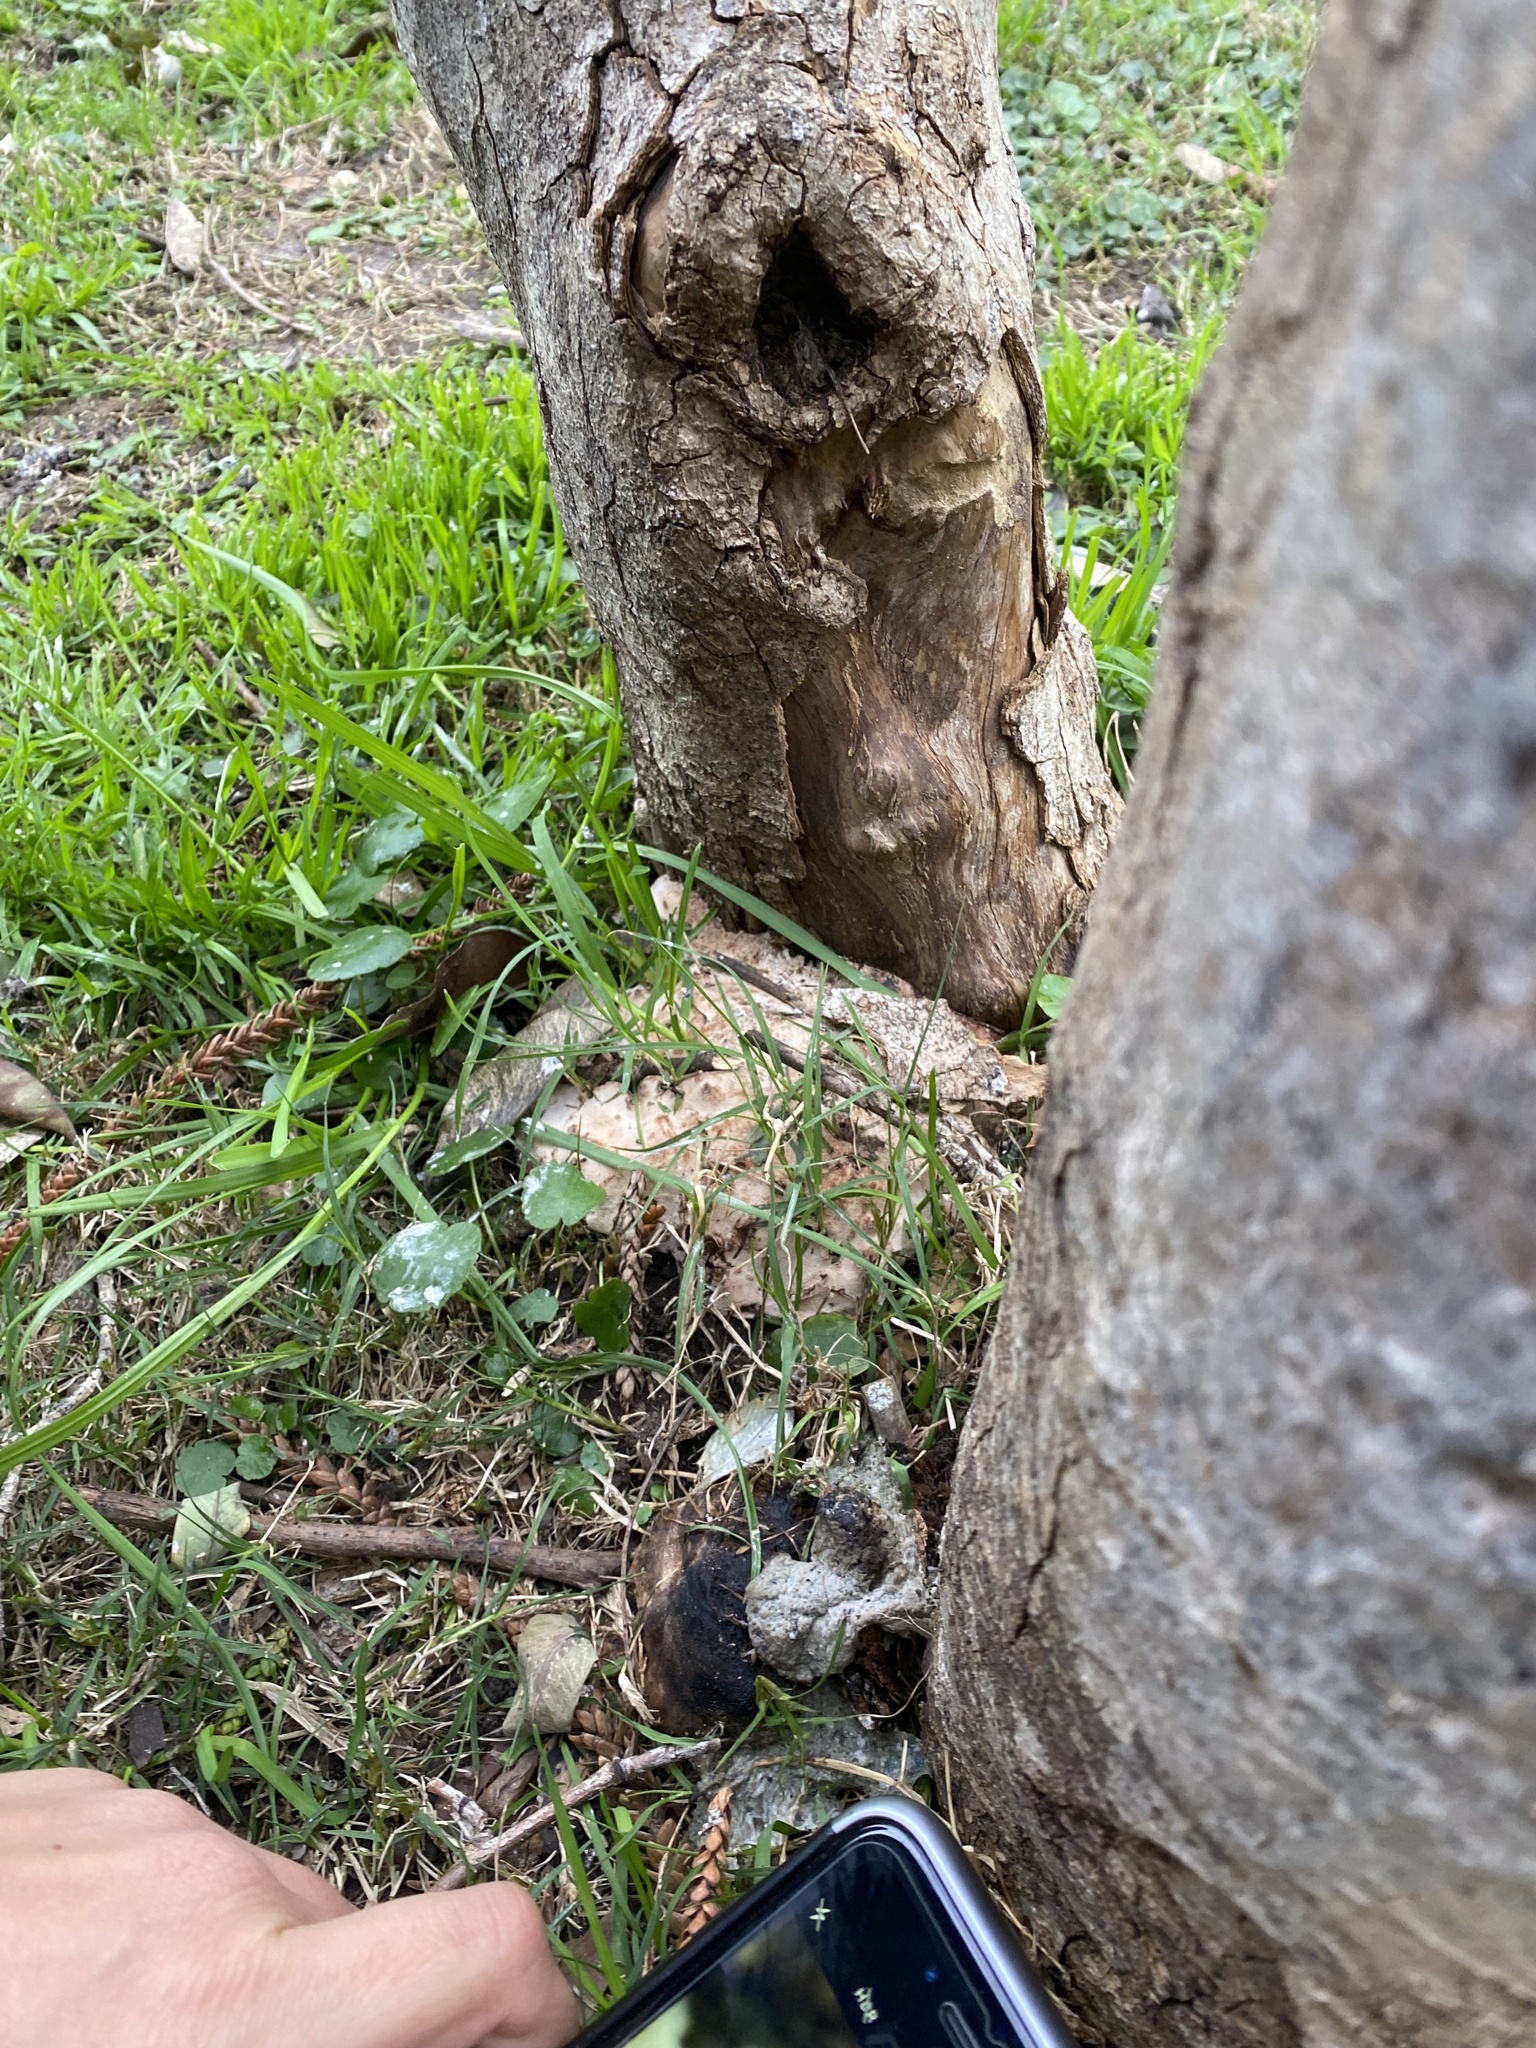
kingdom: Fungi
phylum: Basidiomycota
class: Agaricomycetes
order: Polyporales
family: Podoscyphaceae
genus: Abortiporus
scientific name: Abortiporus biennis
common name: Blushing rosette
